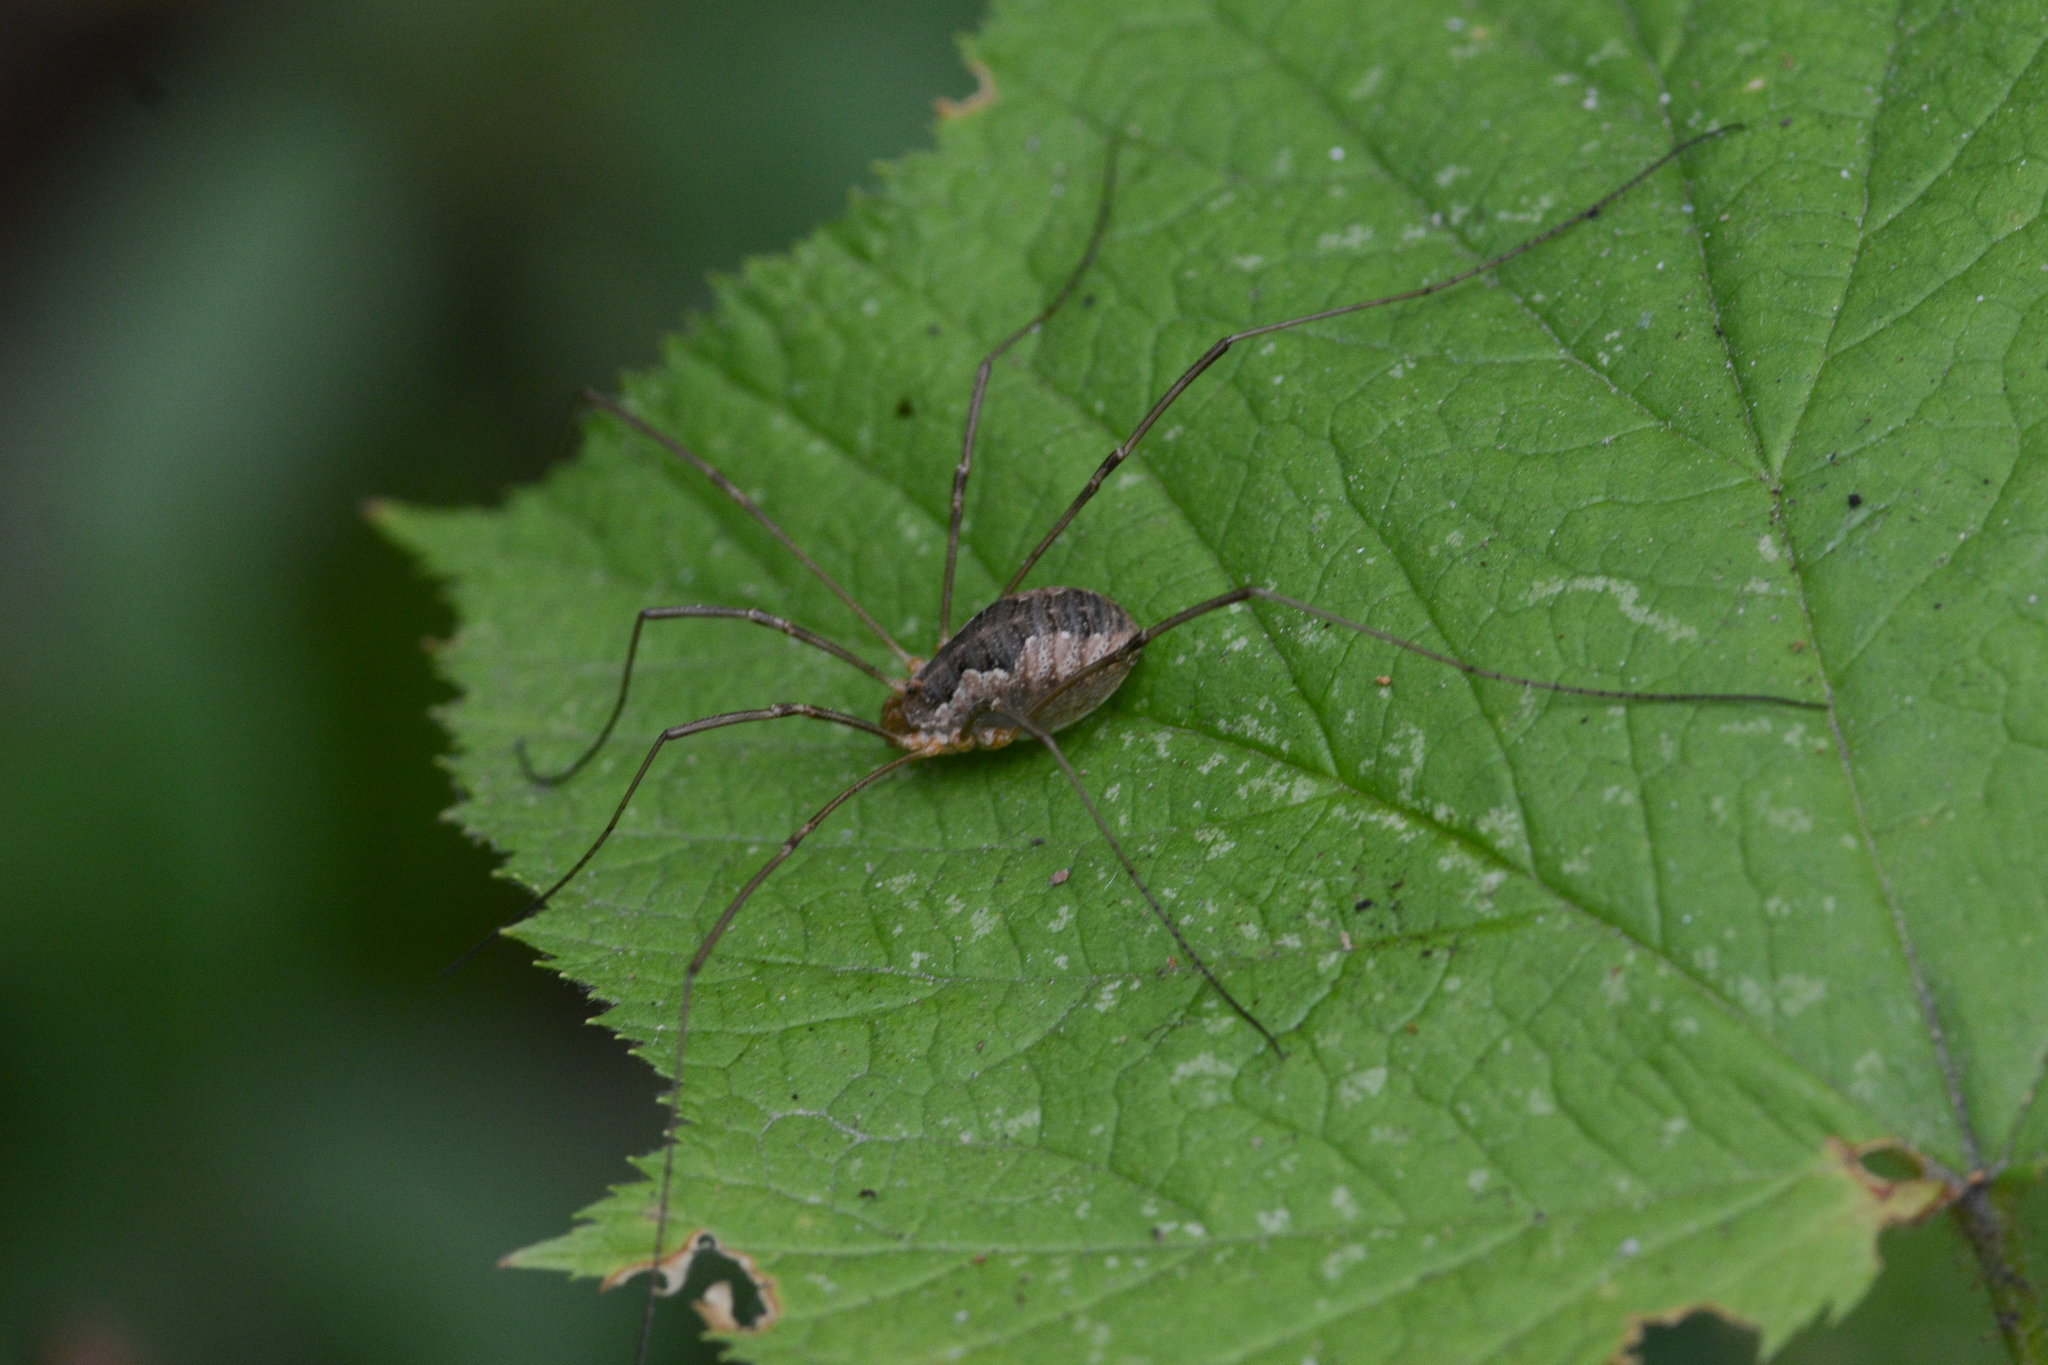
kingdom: Animalia
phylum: Arthropoda
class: Arachnida
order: Opiliones
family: Phalangiidae
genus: Phalangium
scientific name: Phalangium opilio
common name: Daddy longleg
